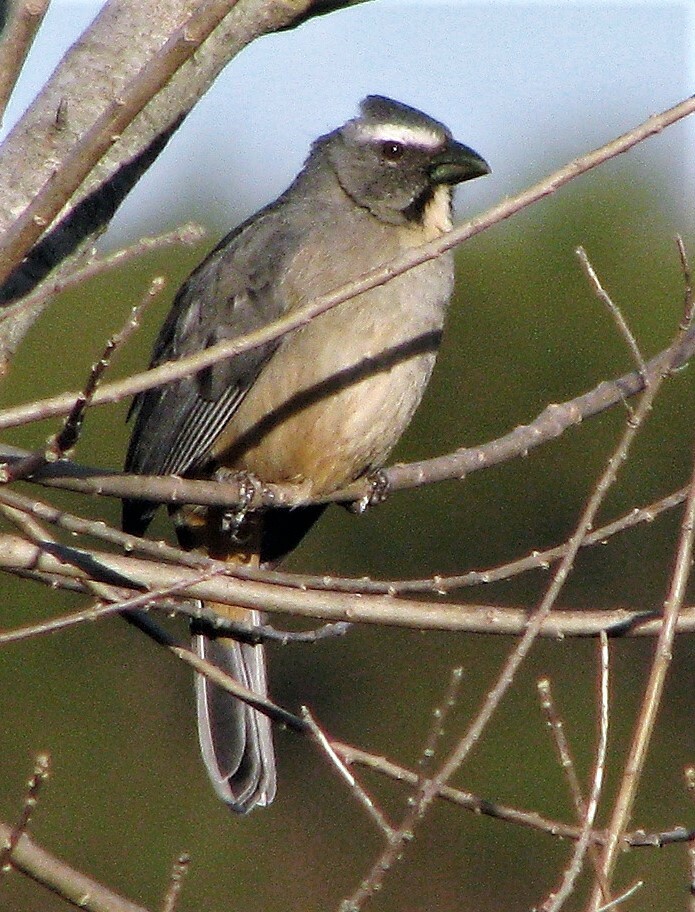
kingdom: Animalia
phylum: Chordata
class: Aves
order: Passeriformes
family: Thraupidae
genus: Saltator
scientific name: Saltator coerulescens
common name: Grayish saltator
